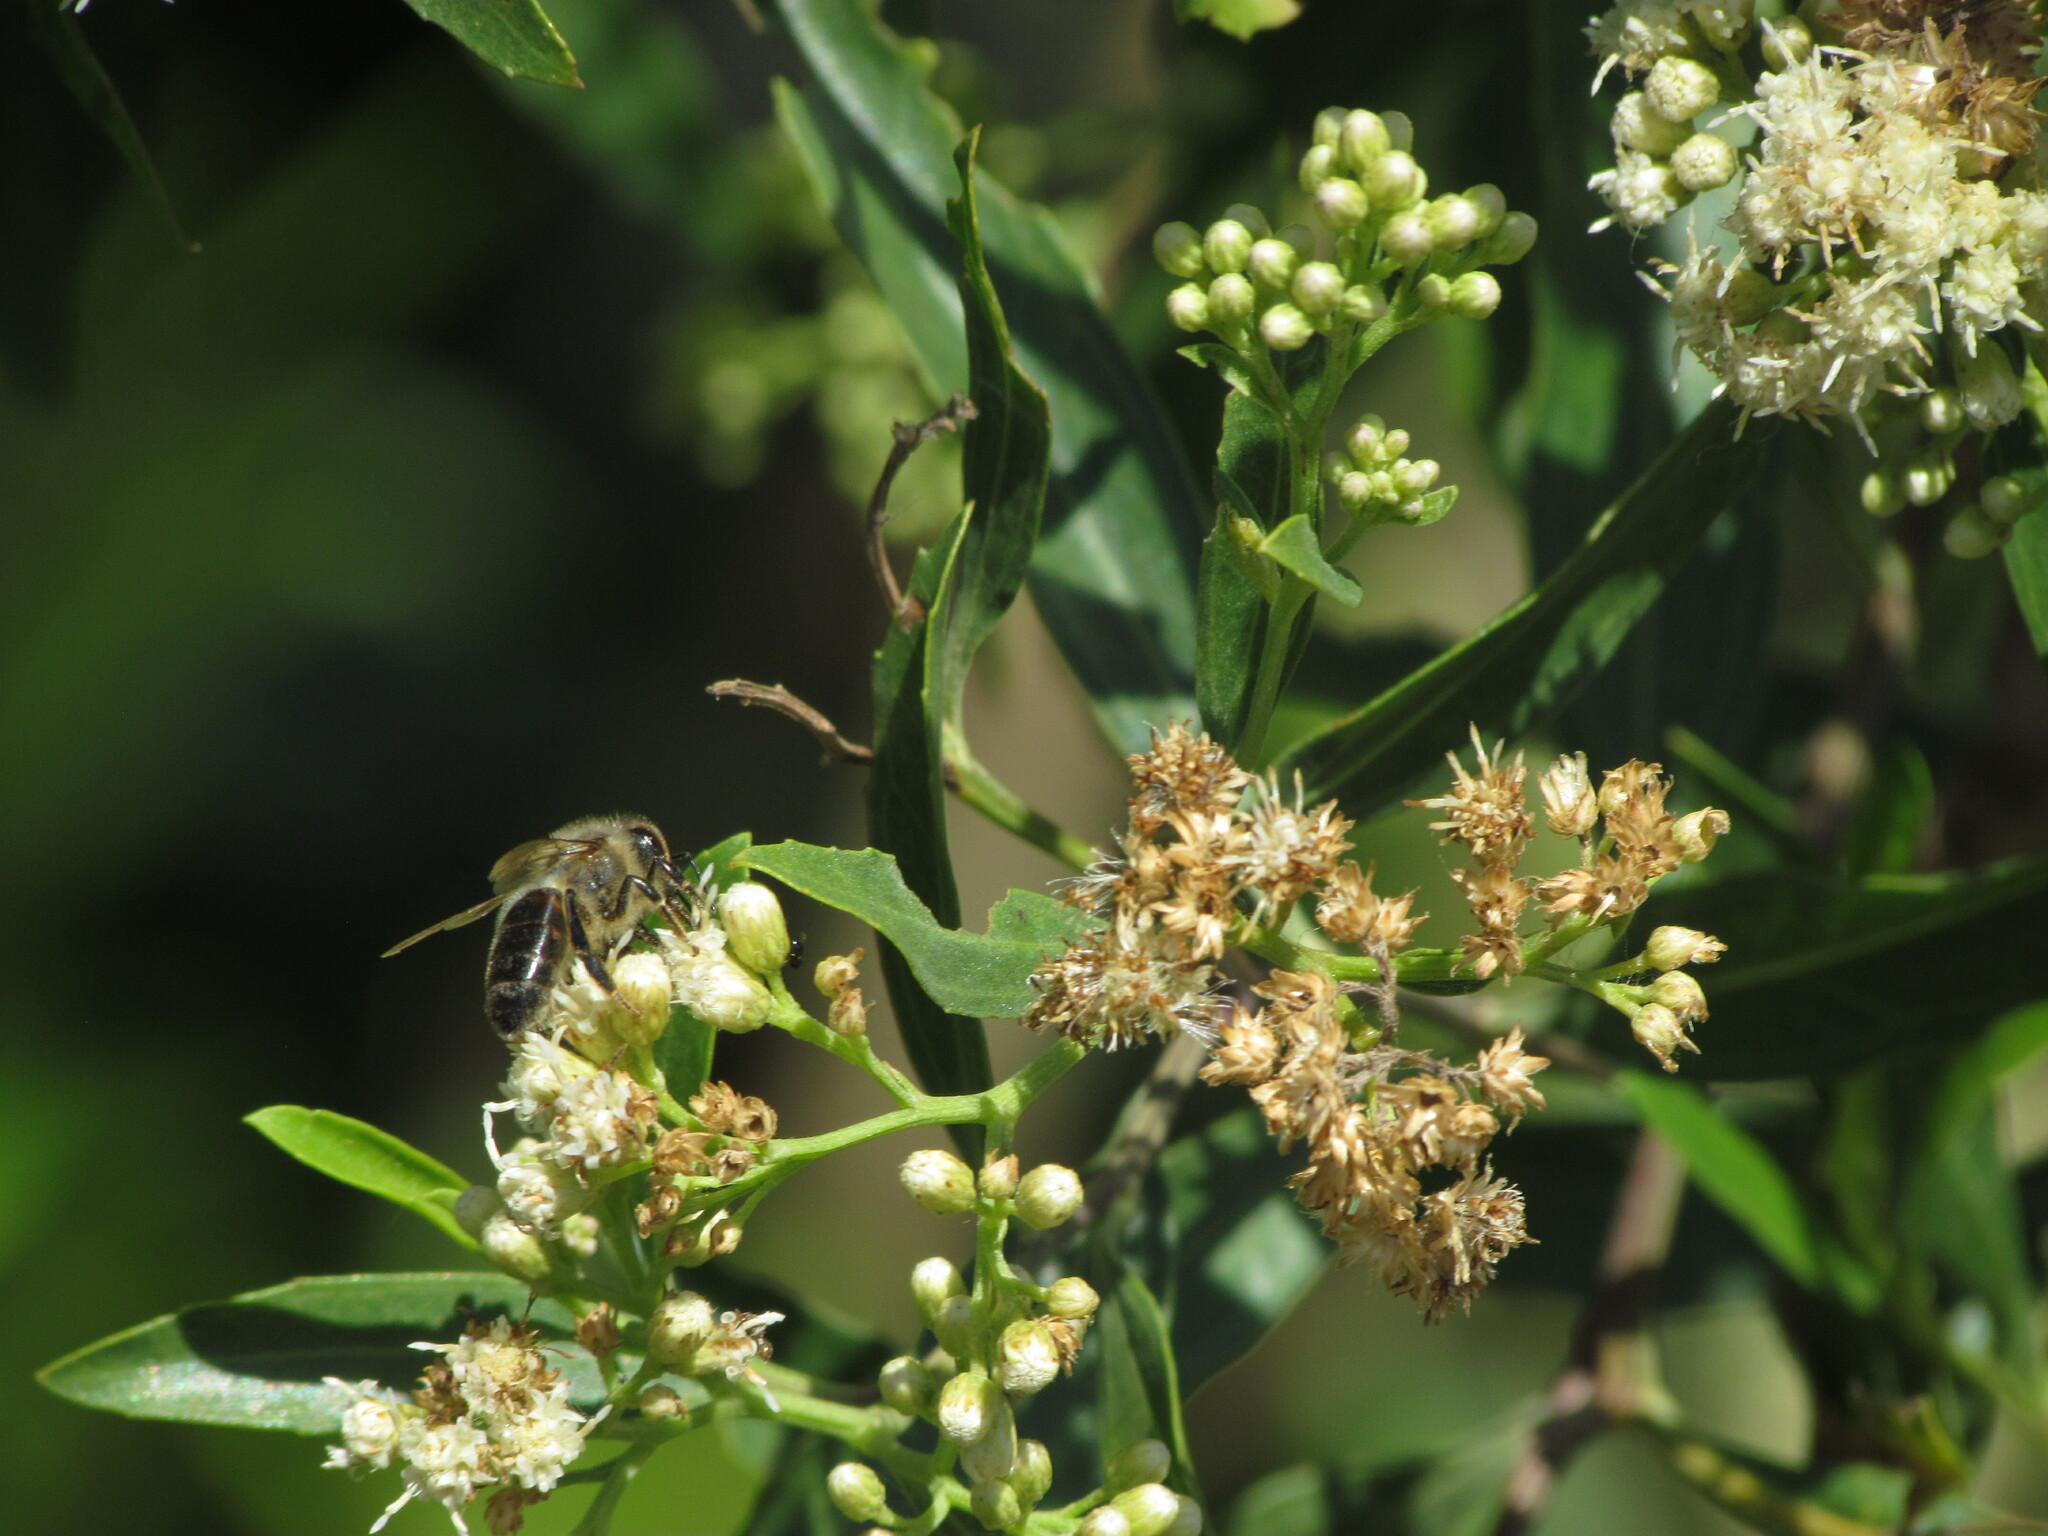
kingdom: Animalia
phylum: Arthropoda
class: Insecta
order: Hymenoptera
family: Apidae
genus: Apis
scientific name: Apis mellifera
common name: Honey bee
